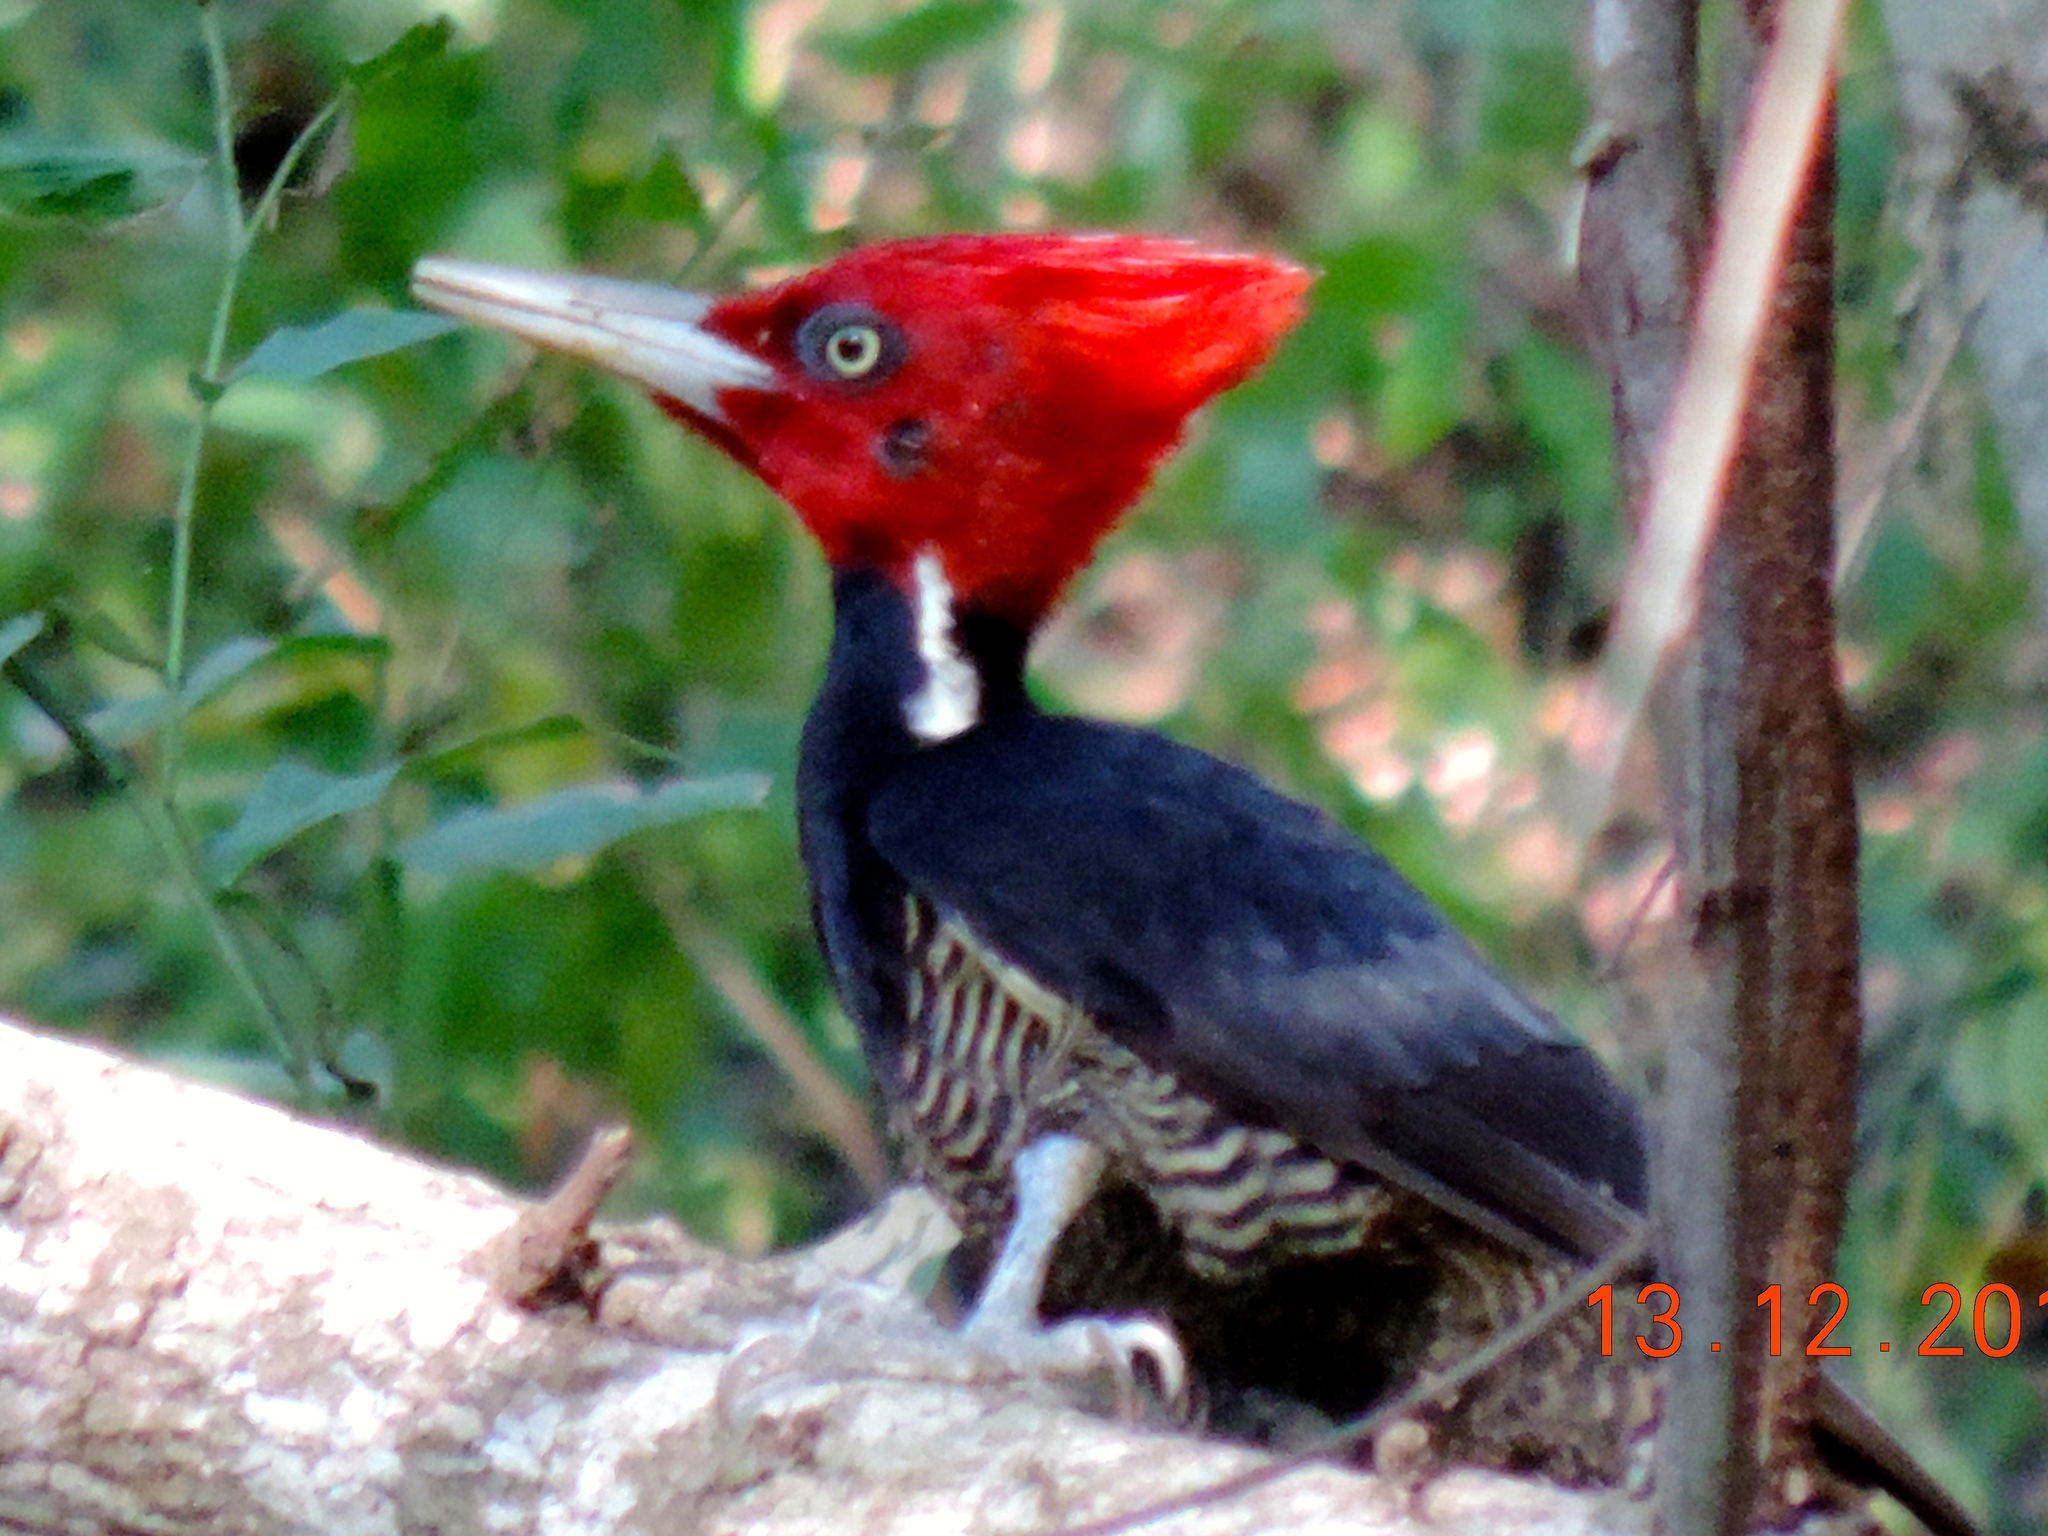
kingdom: Animalia
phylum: Chordata
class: Aves
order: Piciformes
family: Picidae
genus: Campephilus
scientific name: Campephilus guatemalensis
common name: Pale-billed woodpecker
